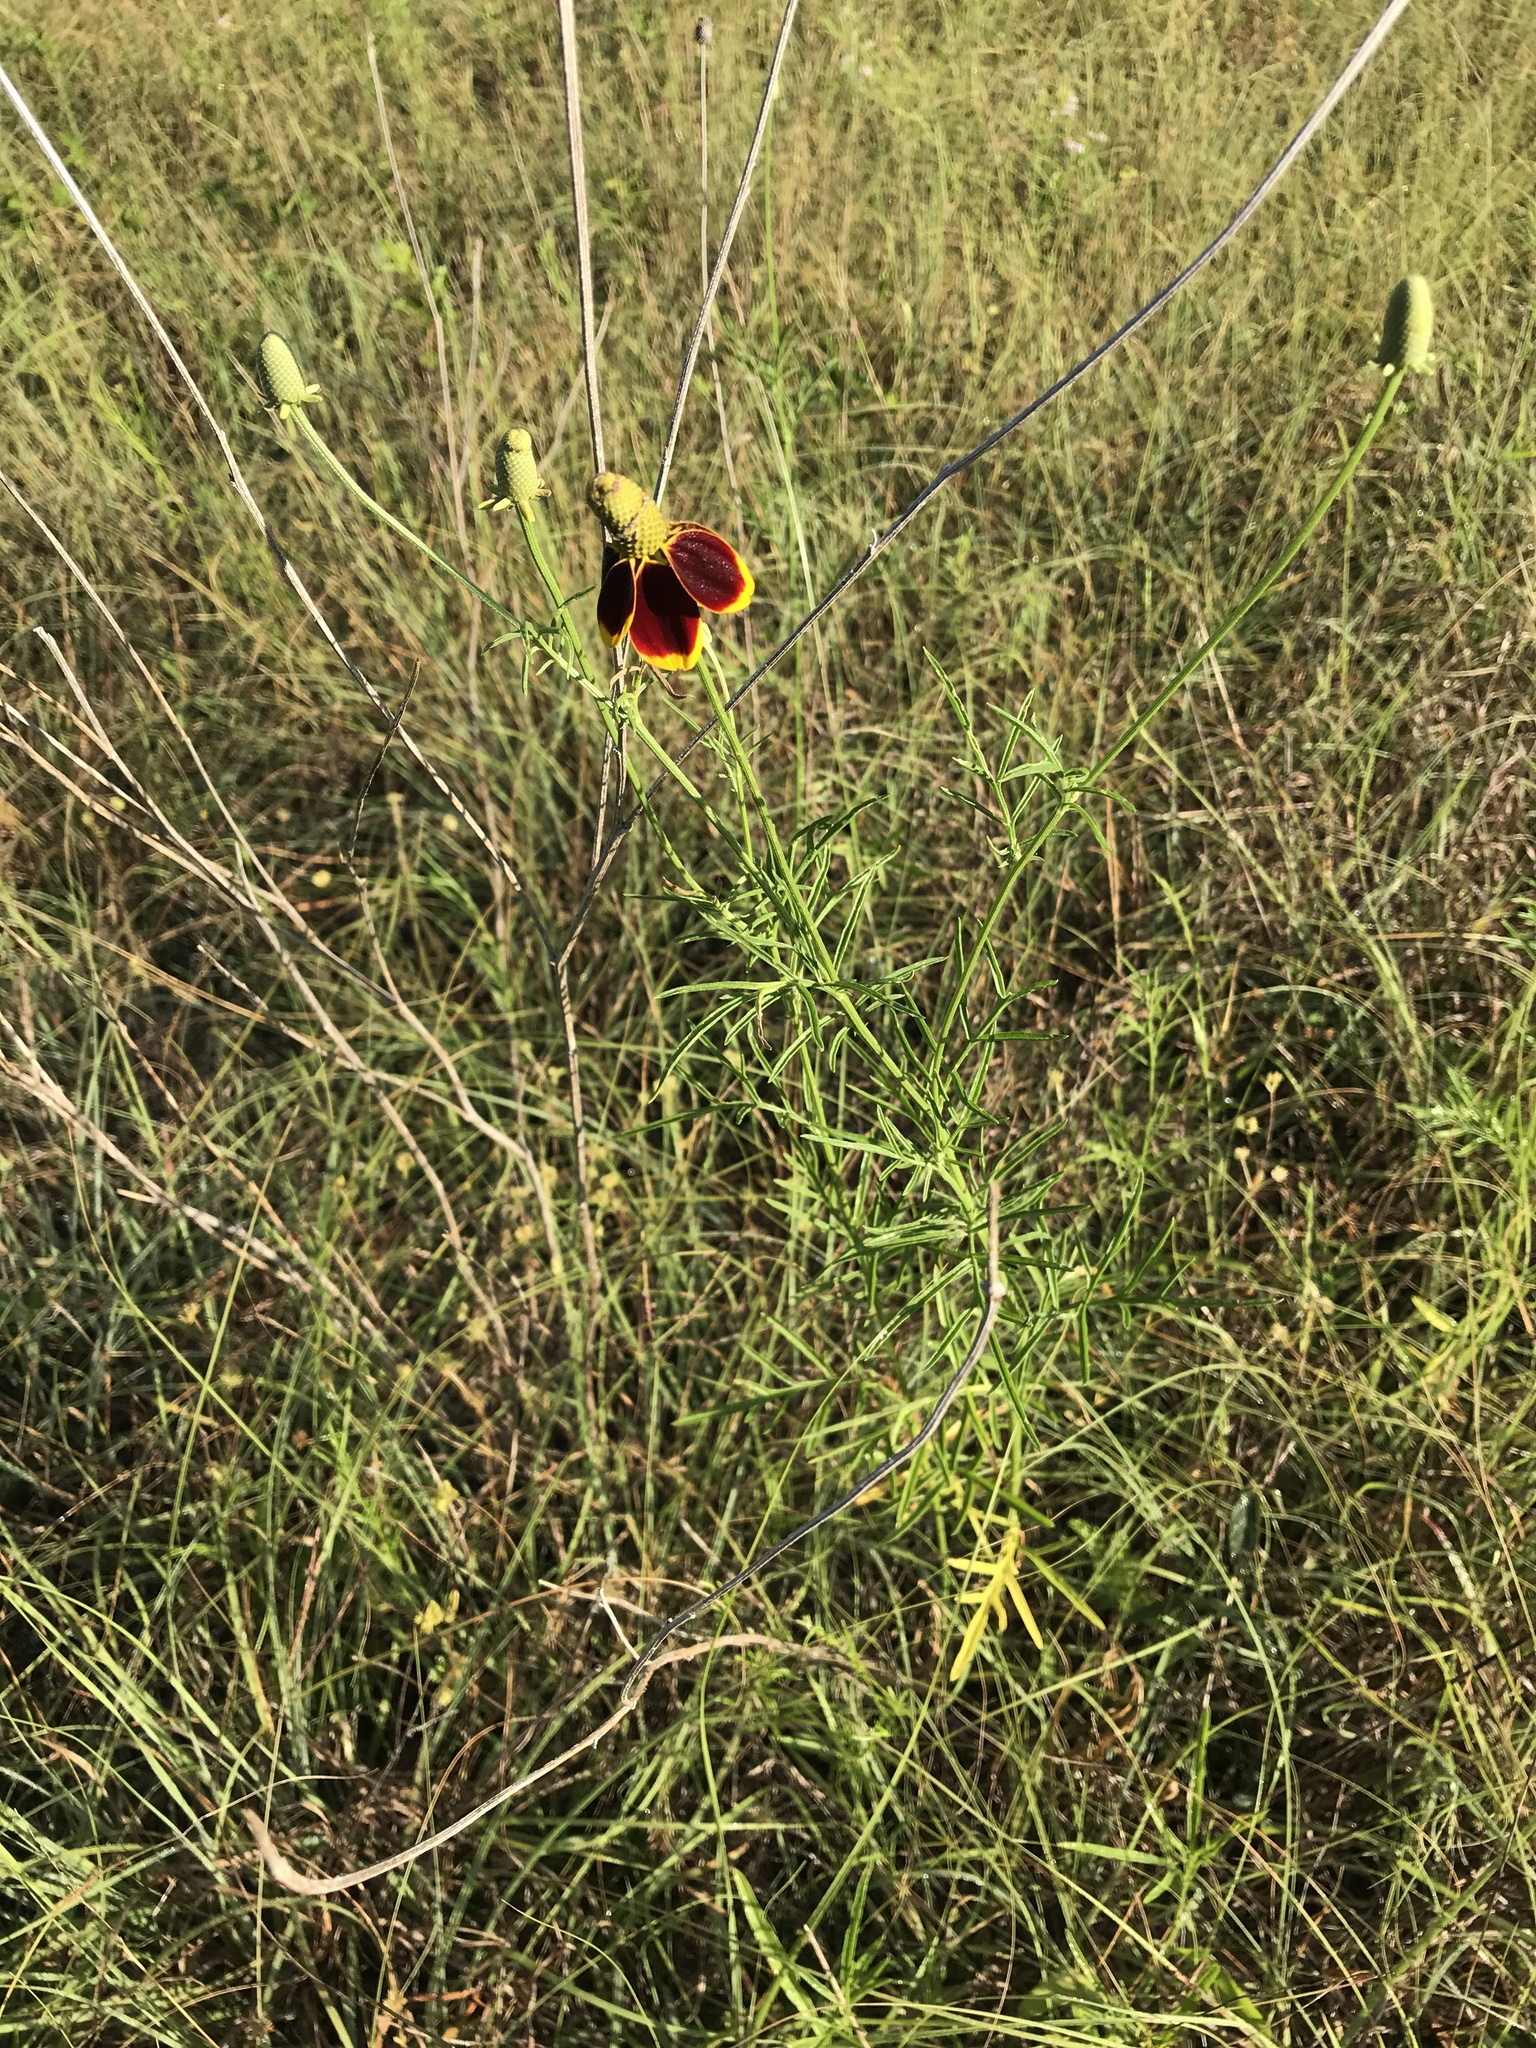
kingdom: Plantae
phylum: Tracheophyta
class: Magnoliopsida
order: Asterales
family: Asteraceae
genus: Ratibida
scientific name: Ratibida columnifera
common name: Prairie coneflower
